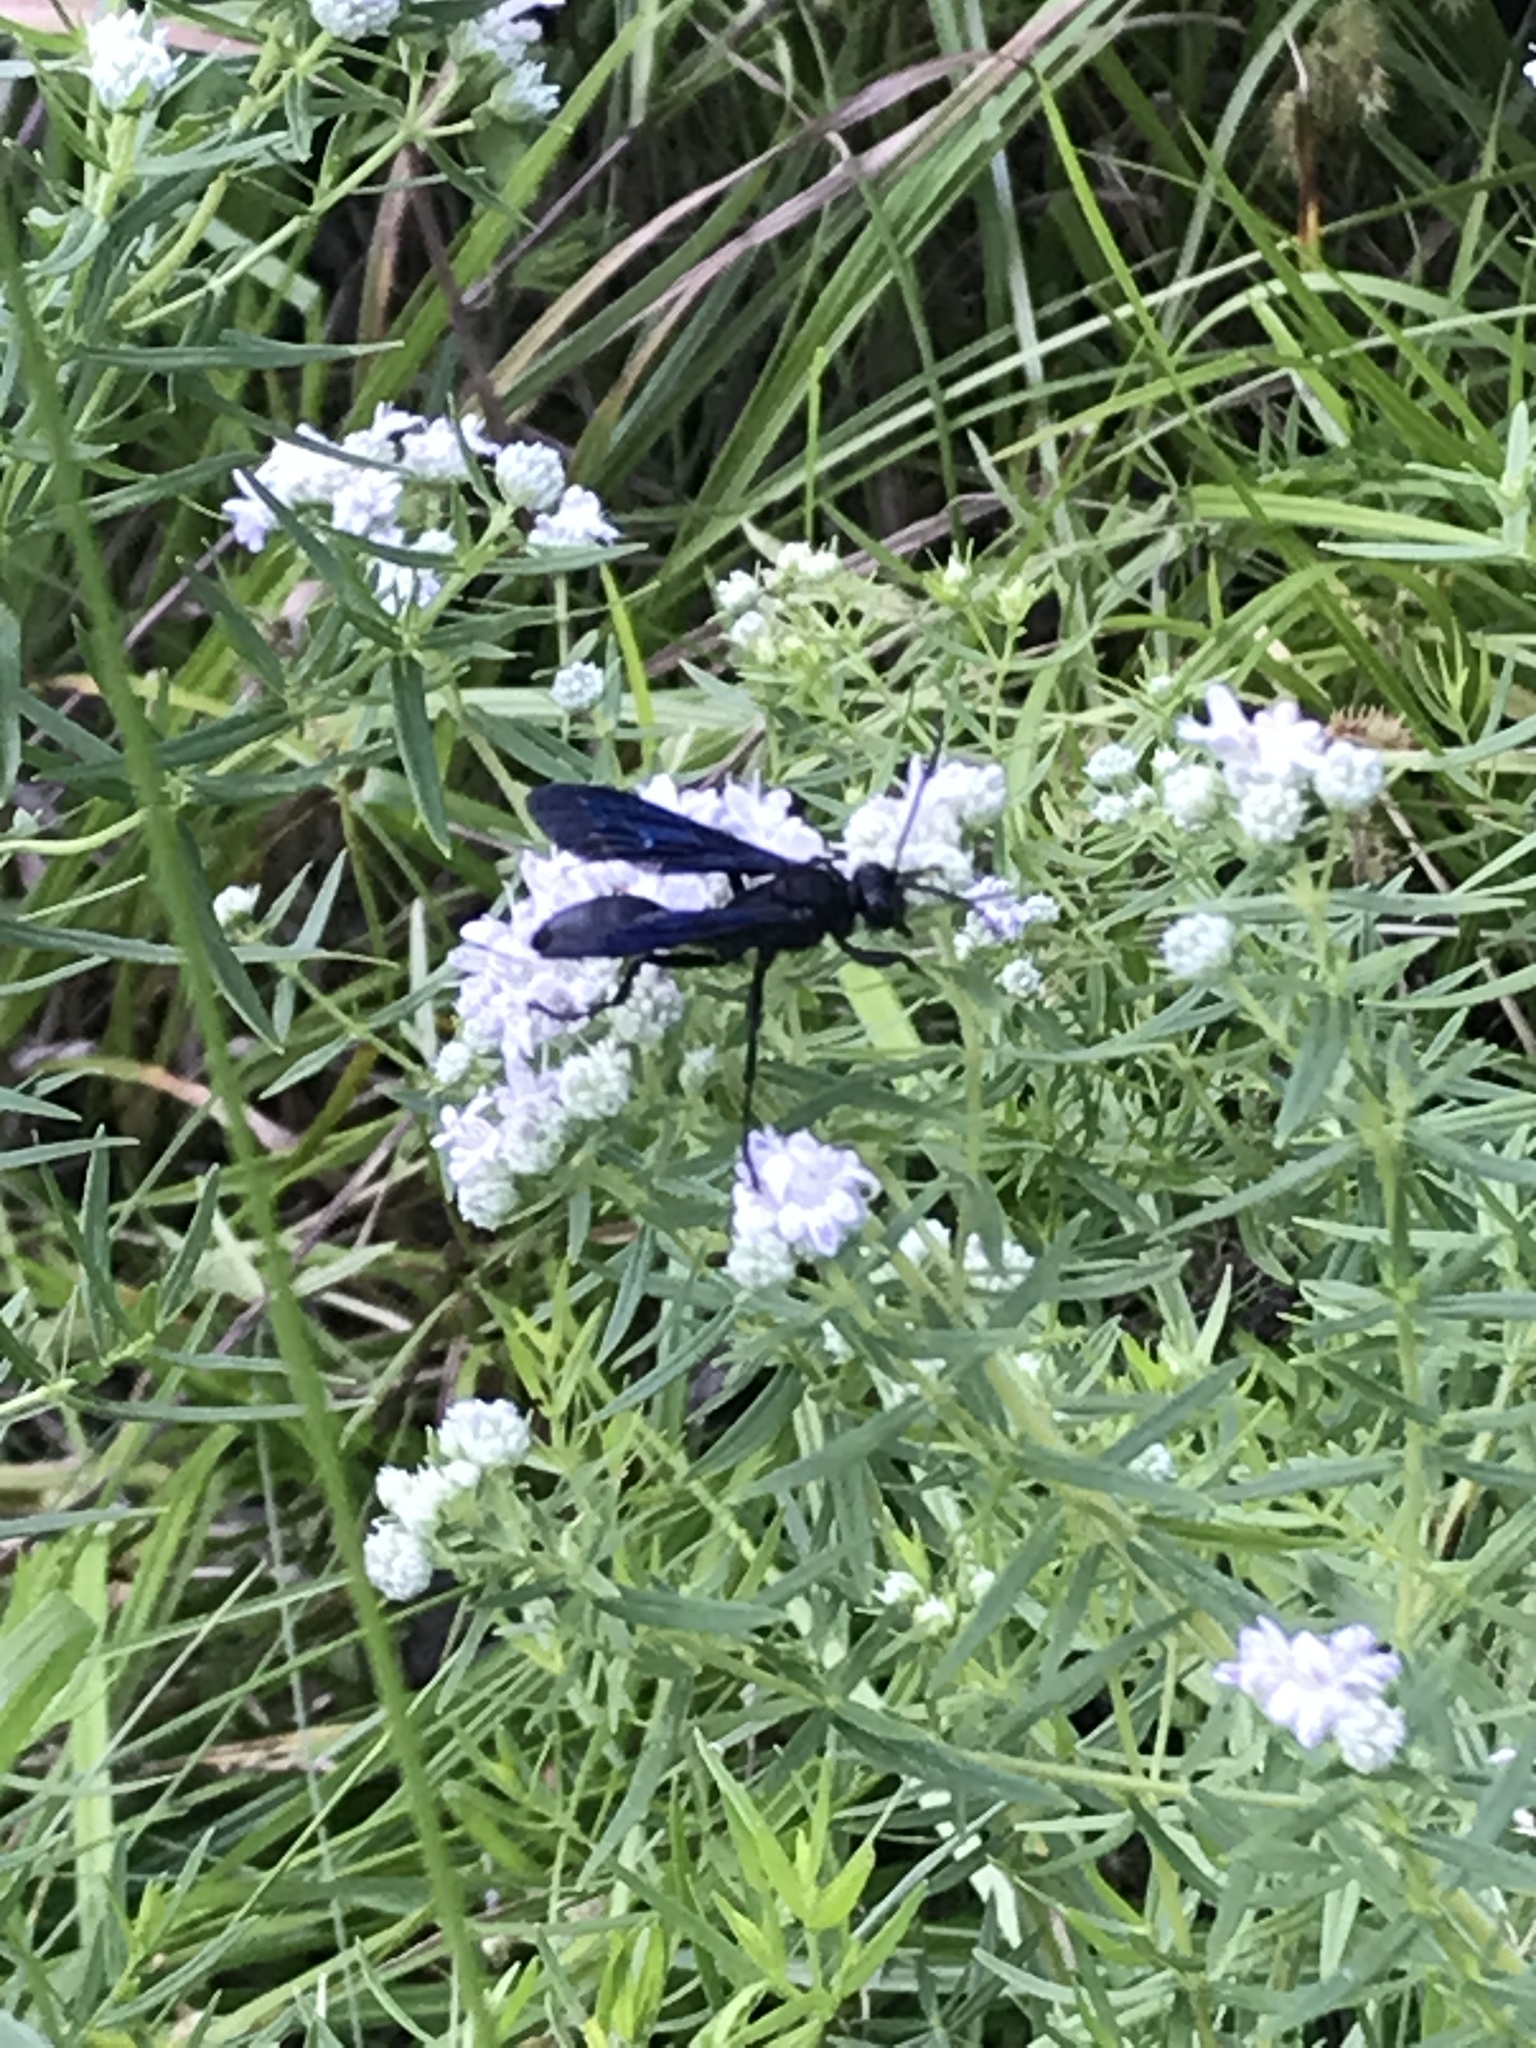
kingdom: Animalia
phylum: Arthropoda
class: Insecta
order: Hymenoptera
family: Sphecidae
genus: Sphex
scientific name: Sphex pensylvanicus
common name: Great black digger wasp
